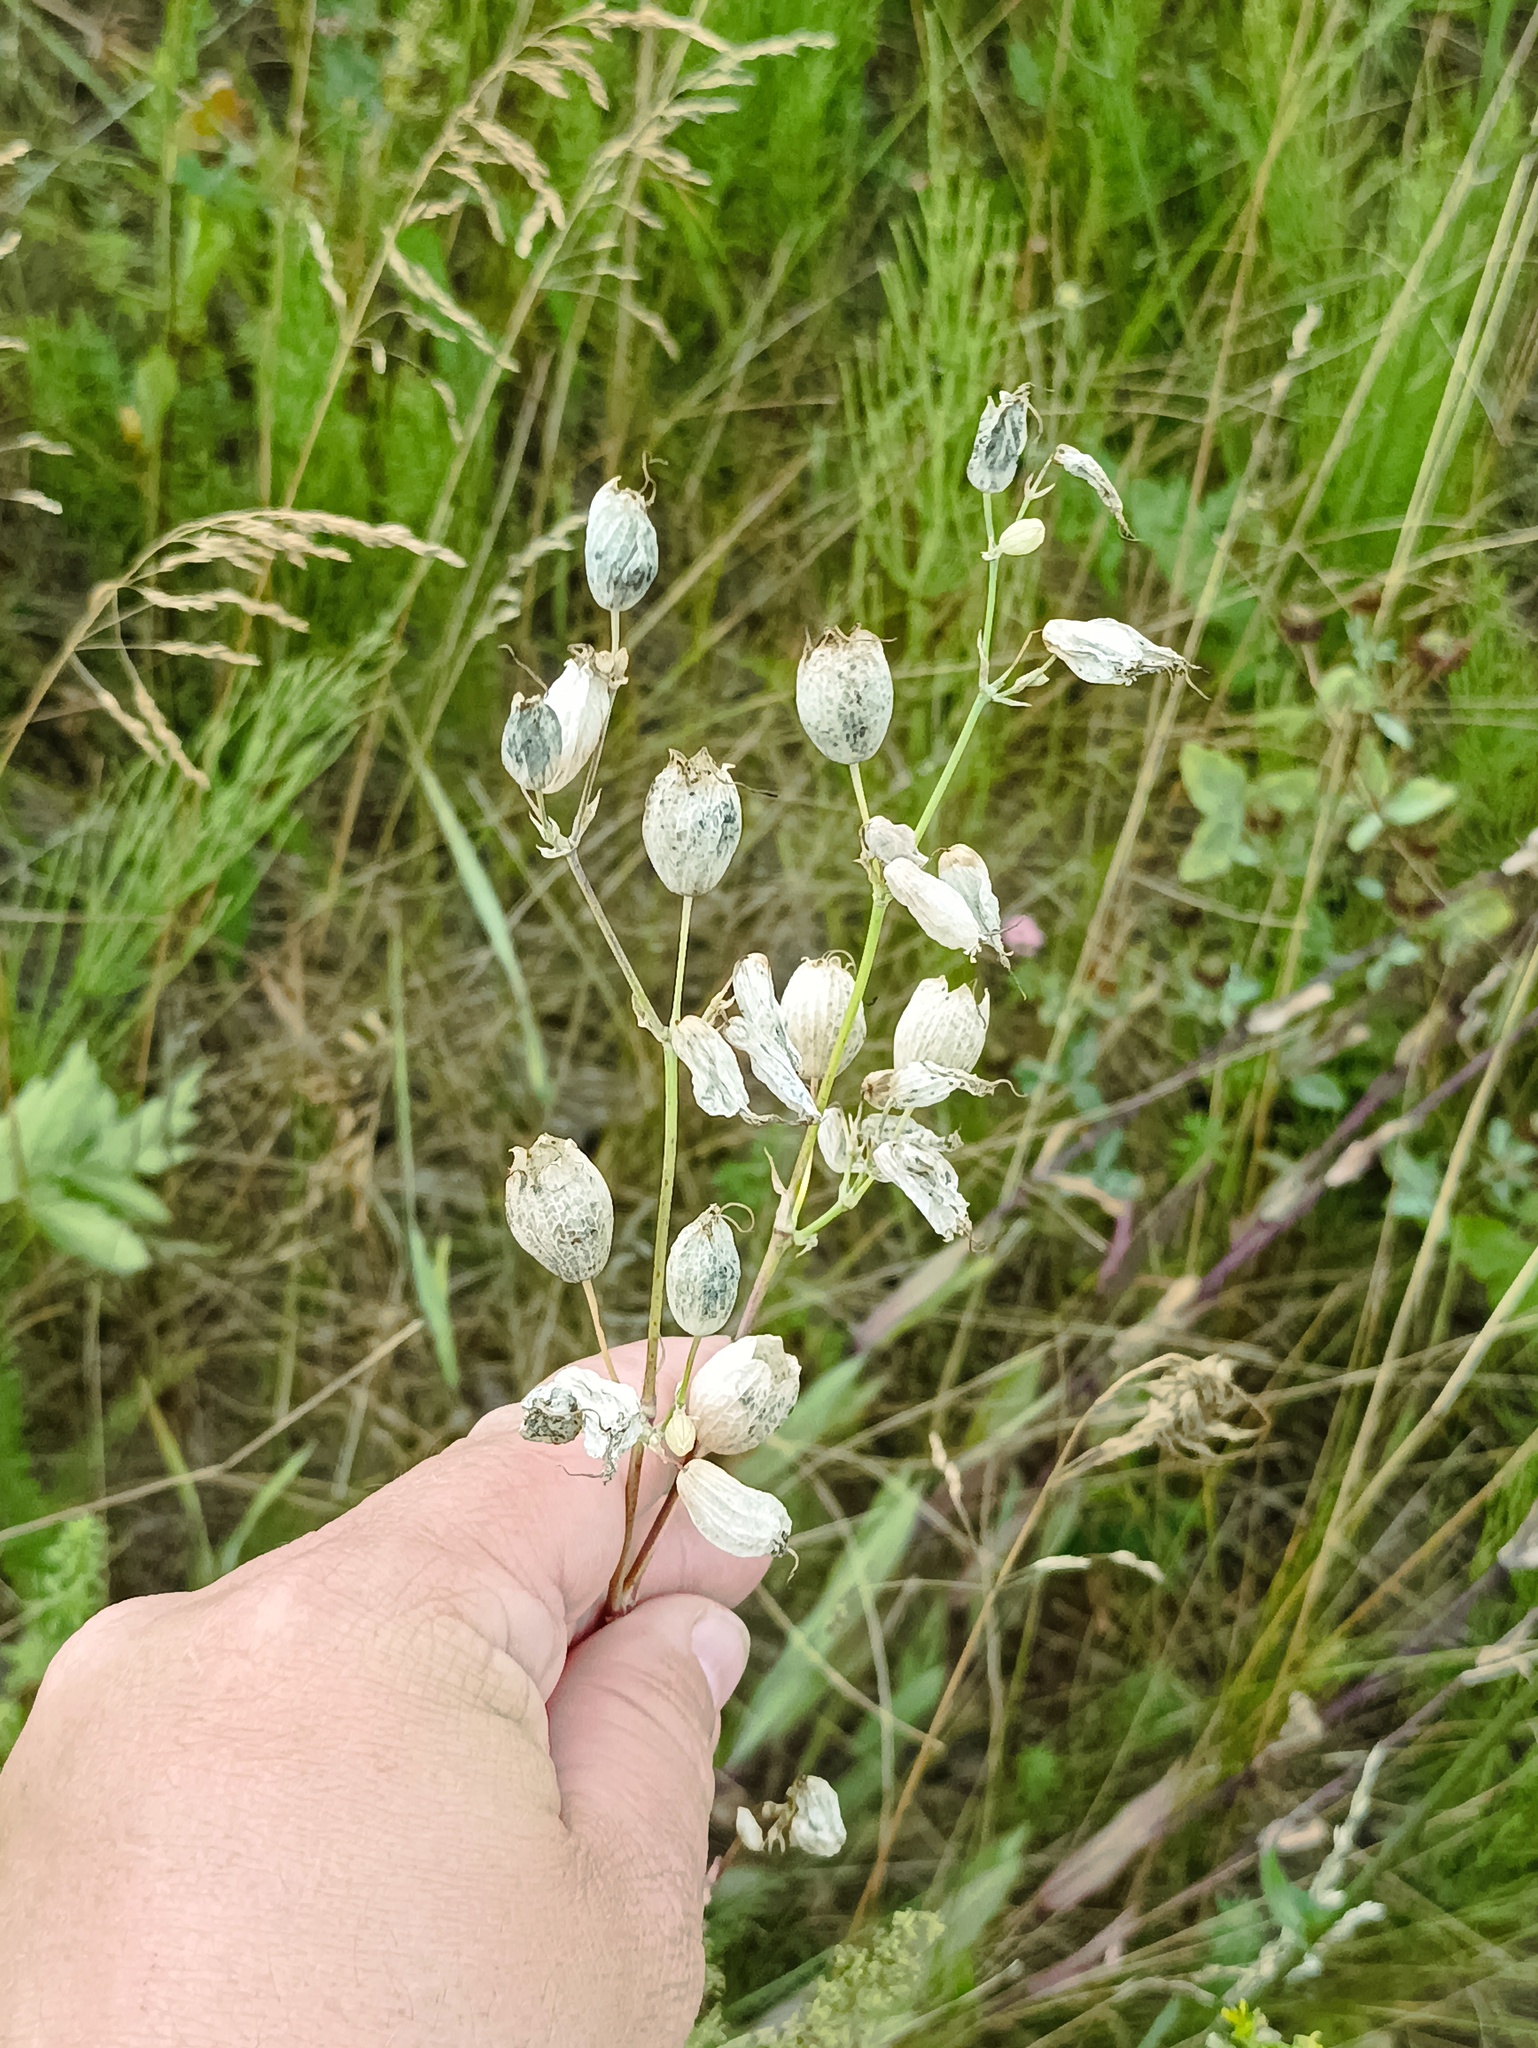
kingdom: Plantae
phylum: Tracheophyta
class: Magnoliopsida
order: Caryophyllales
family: Caryophyllaceae
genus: Silene
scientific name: Silene vulgaris
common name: Bladder campion
